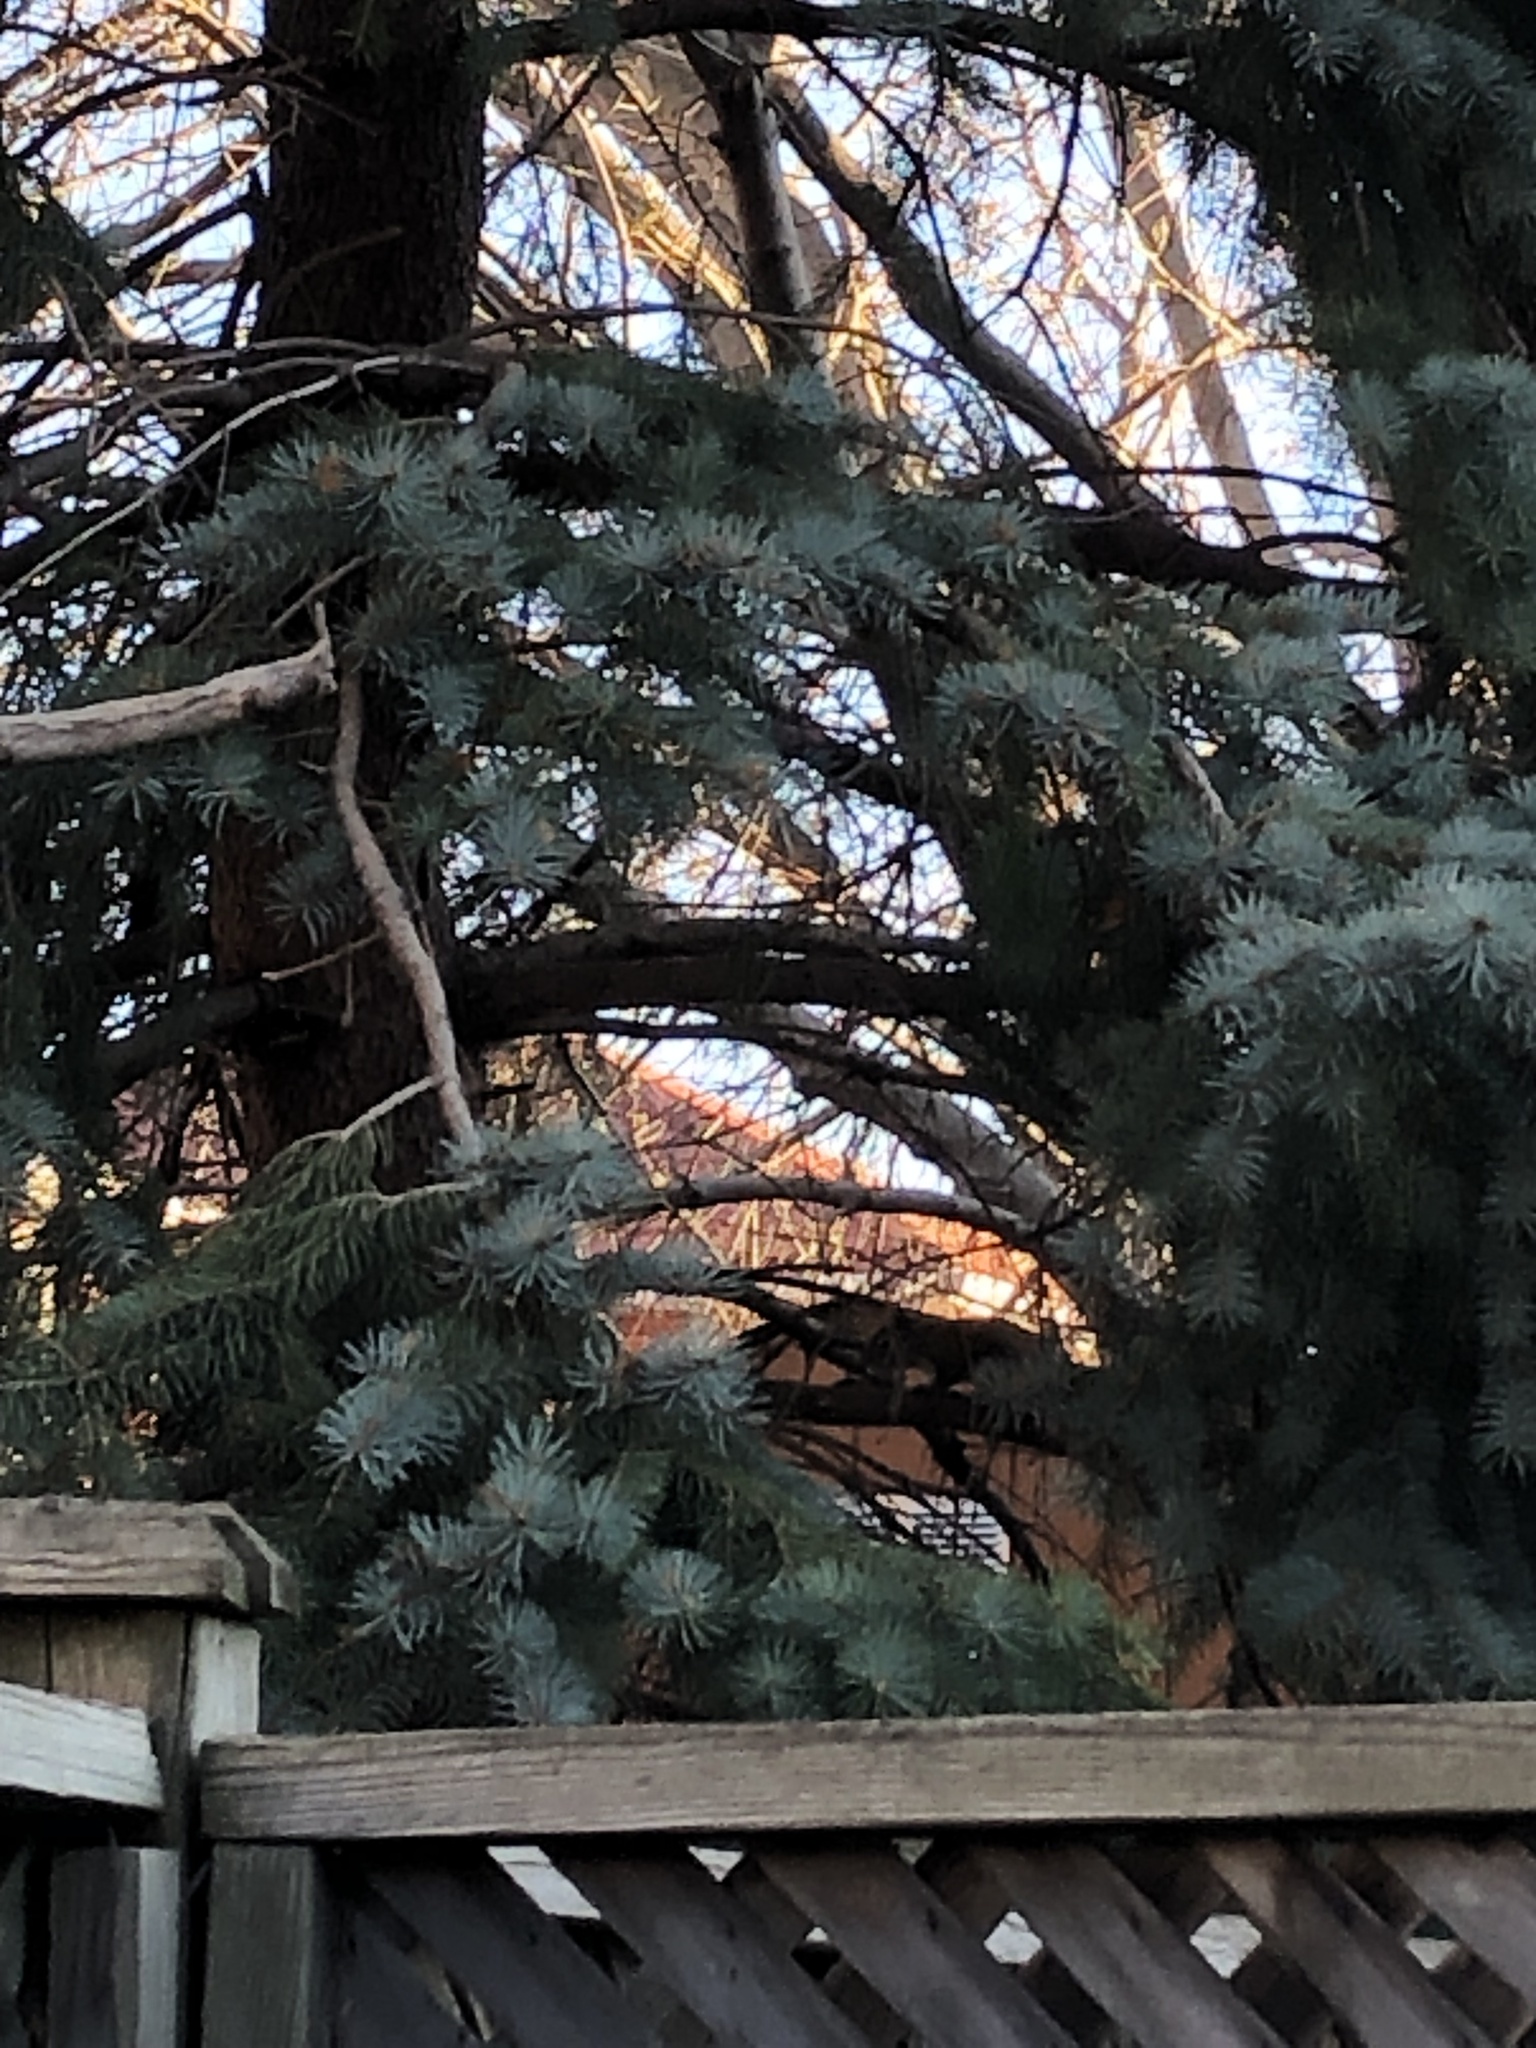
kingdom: Animalia
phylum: Chordata
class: Mammalia
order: Rodentia
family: Sciuridae
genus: Tamiasciurus
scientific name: Tamiasciurus hudsonicus
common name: Red squirrel
